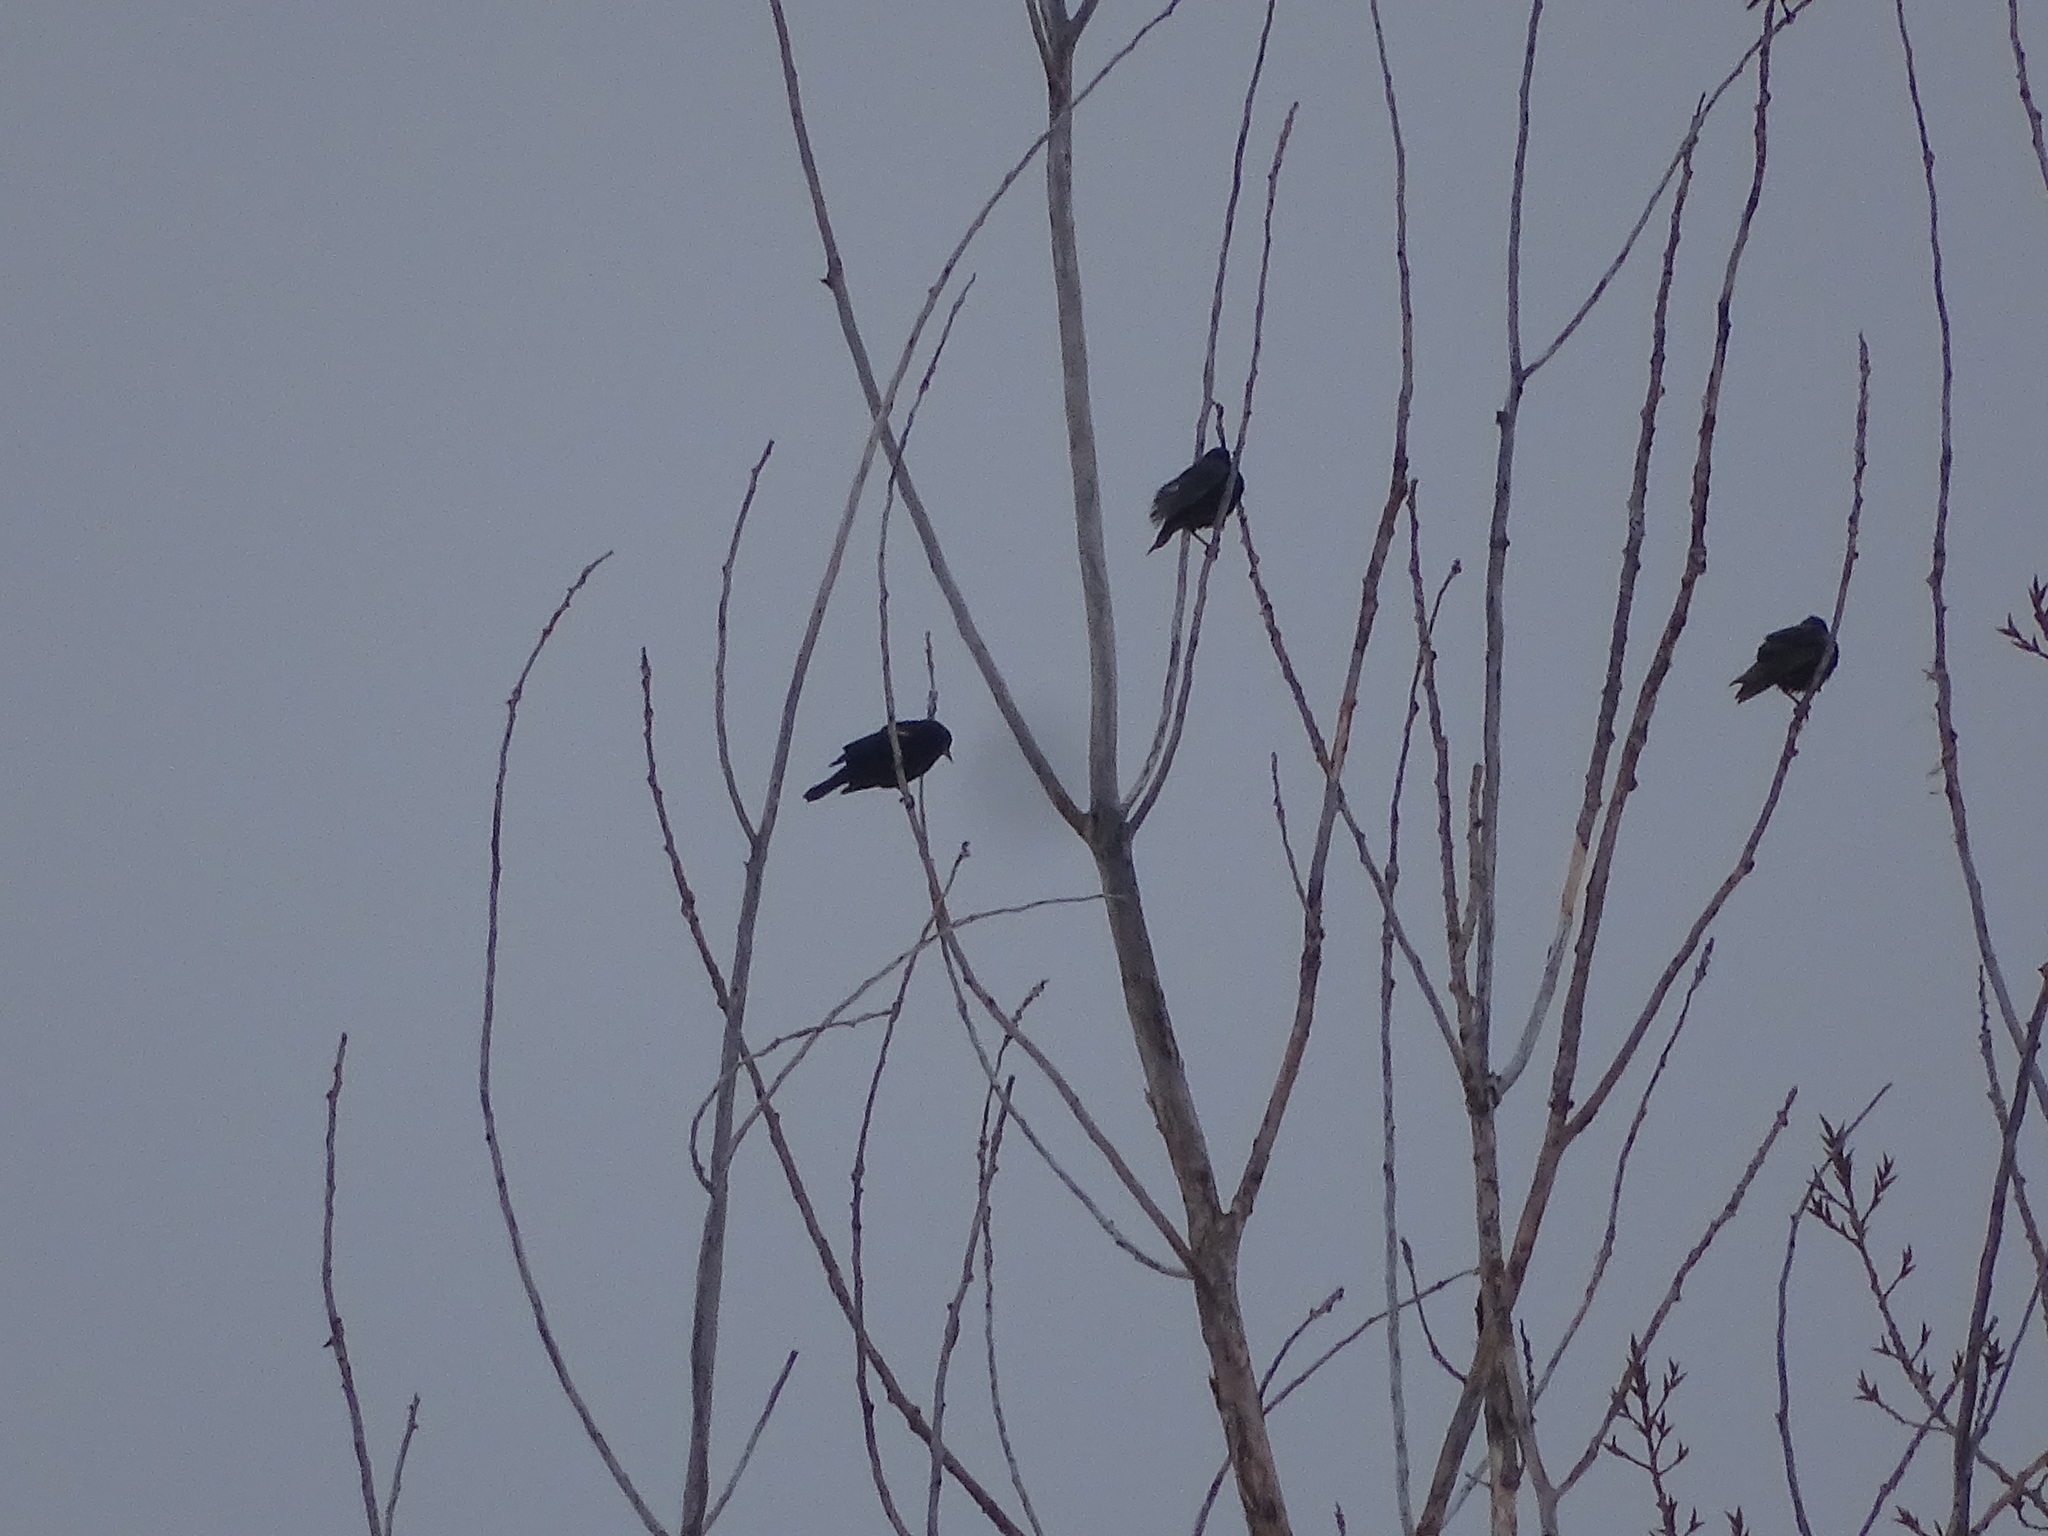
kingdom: Animalia
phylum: Chordata
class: Aves
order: Passeriformes
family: Sturnidae
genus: Sturnus
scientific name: Sturnus vulgaris
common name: Common starling
